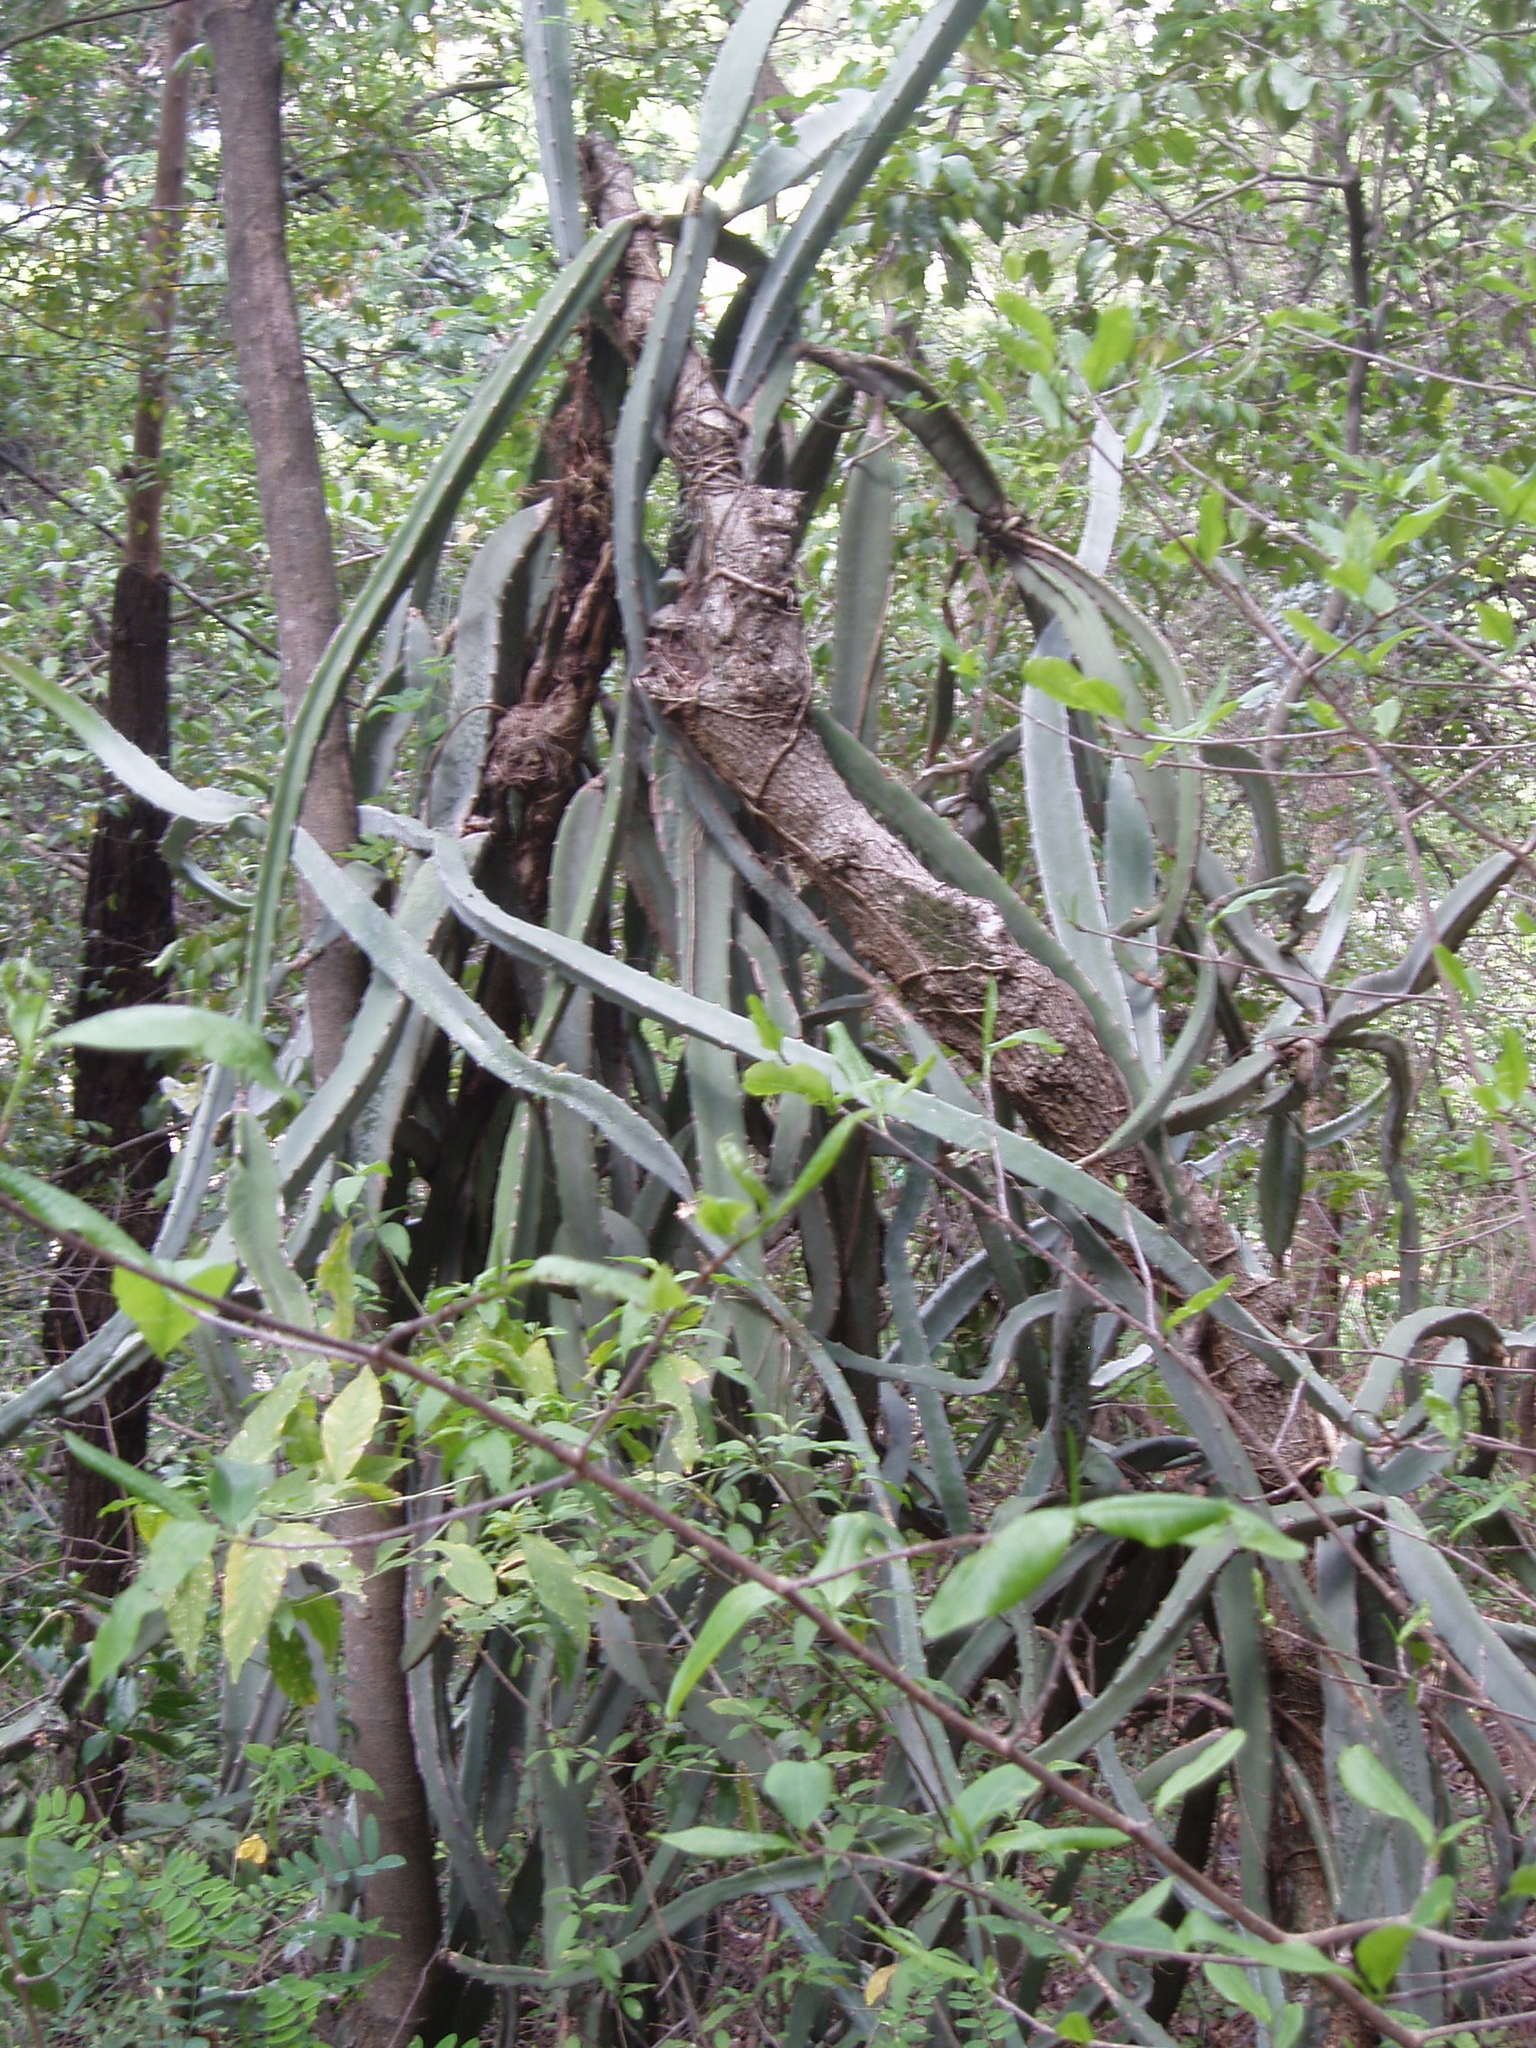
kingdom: Plantae
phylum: Tracheophyta
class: Magnoliopsida
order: Caryophyllales
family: Cactaceae
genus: Selenicereus
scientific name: Selenicereus monacanthus
